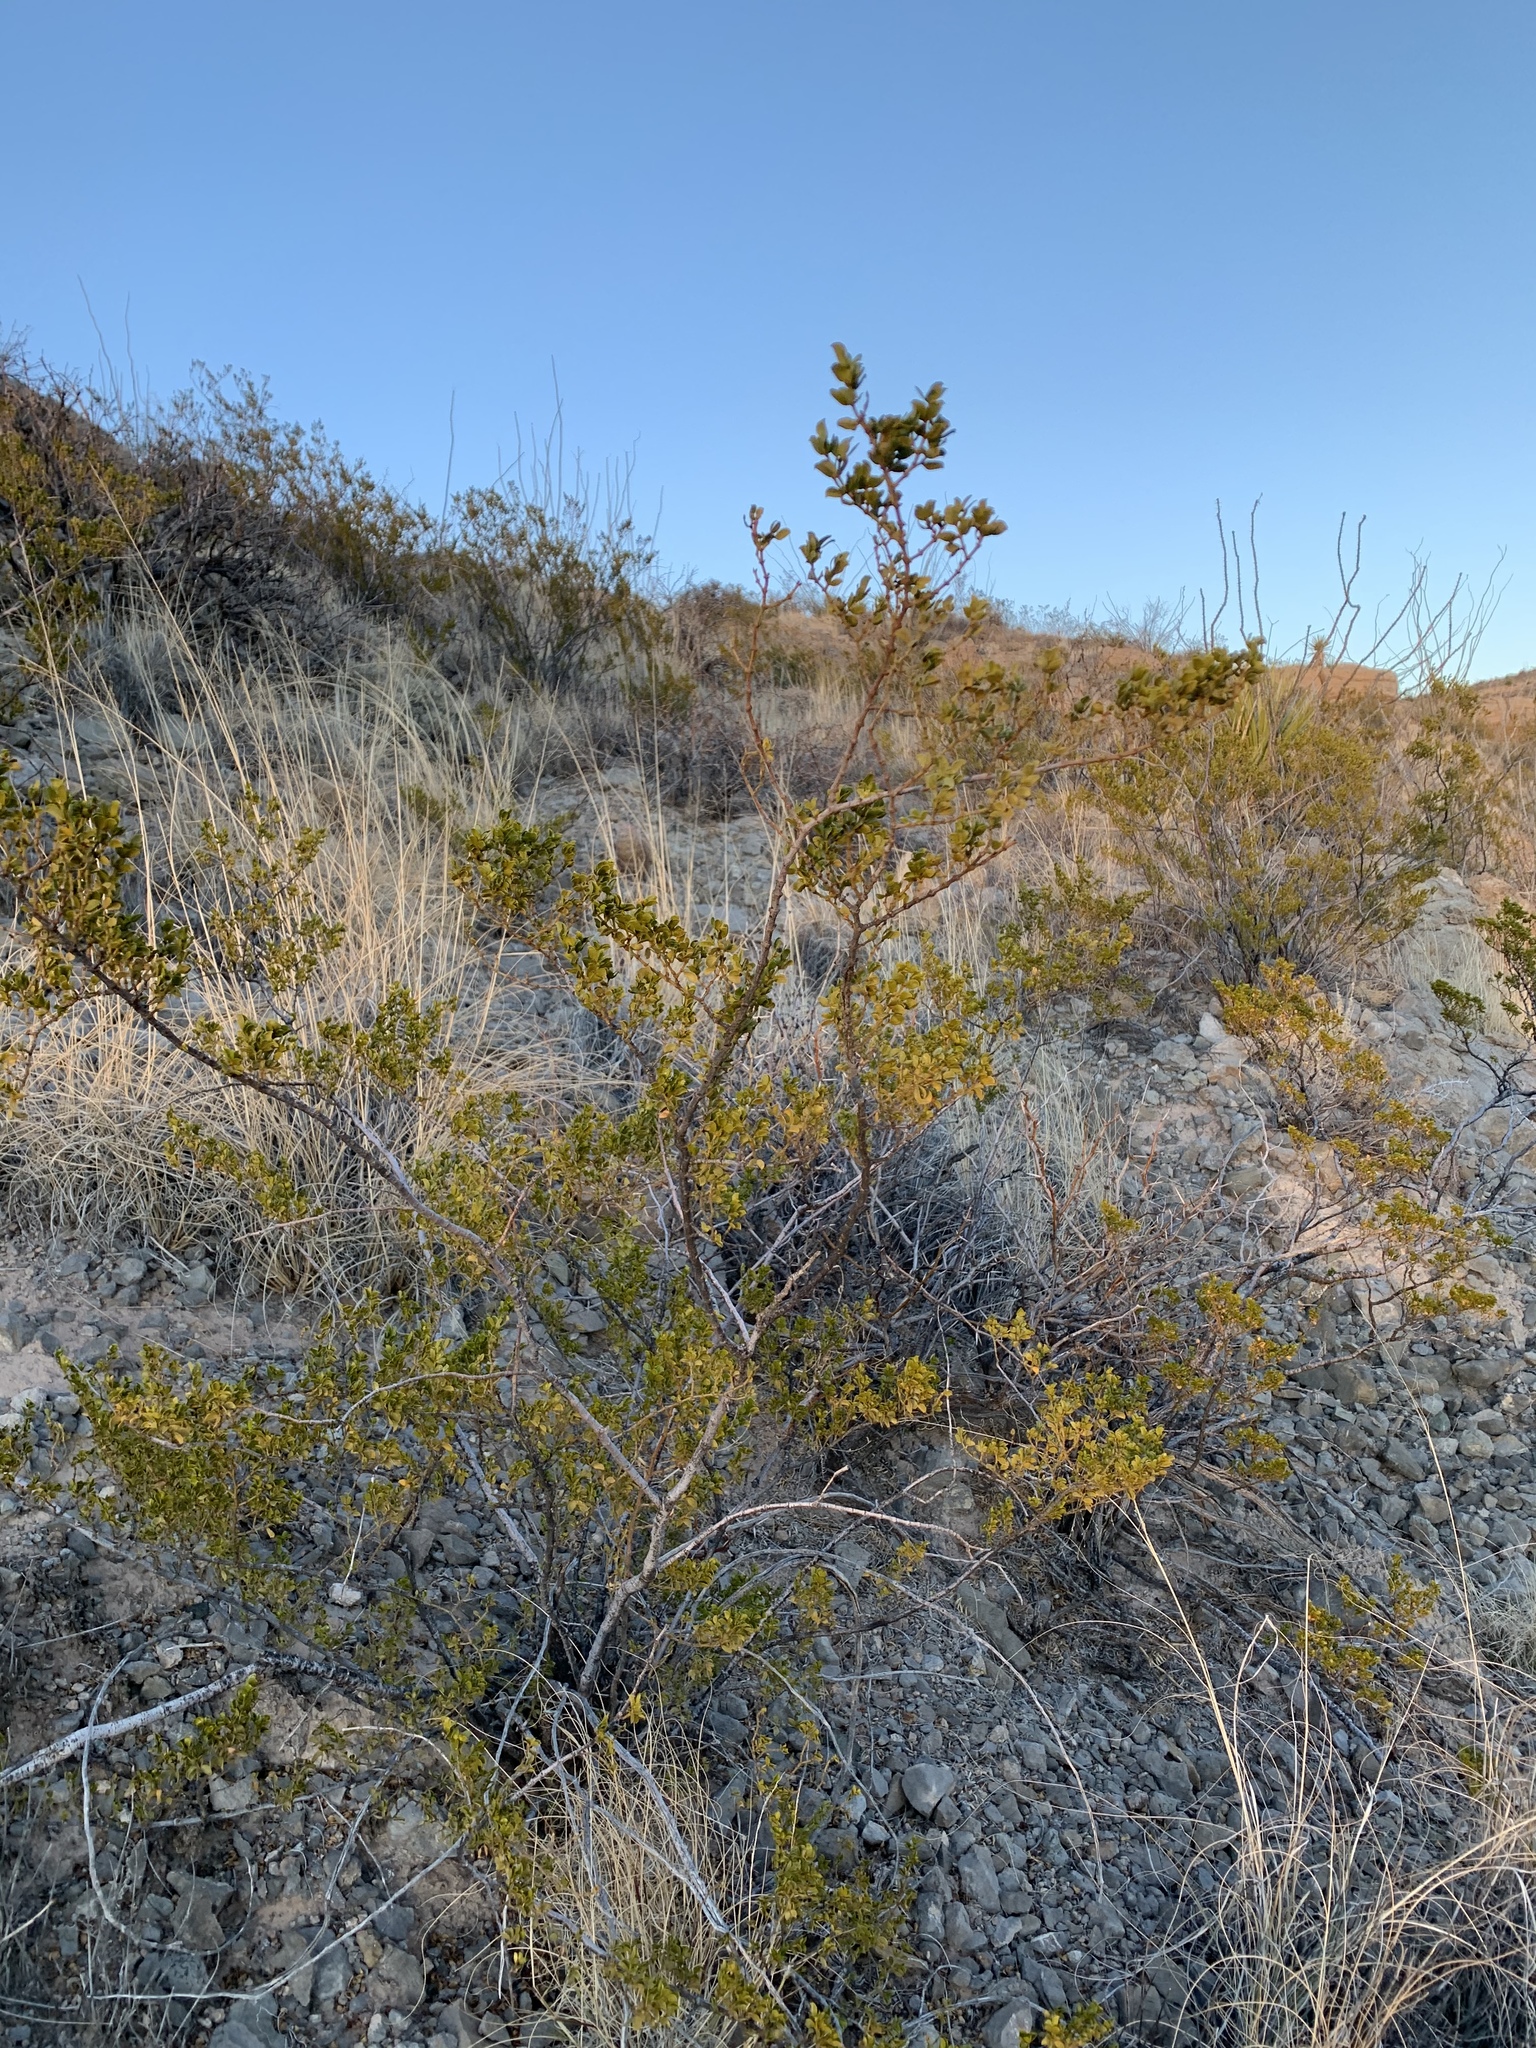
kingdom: Plantae
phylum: Tracheophyta
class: Magnoliopsida
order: Zygophyllales
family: Zygophyllaceae
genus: Larrea
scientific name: Larrea tridentata
